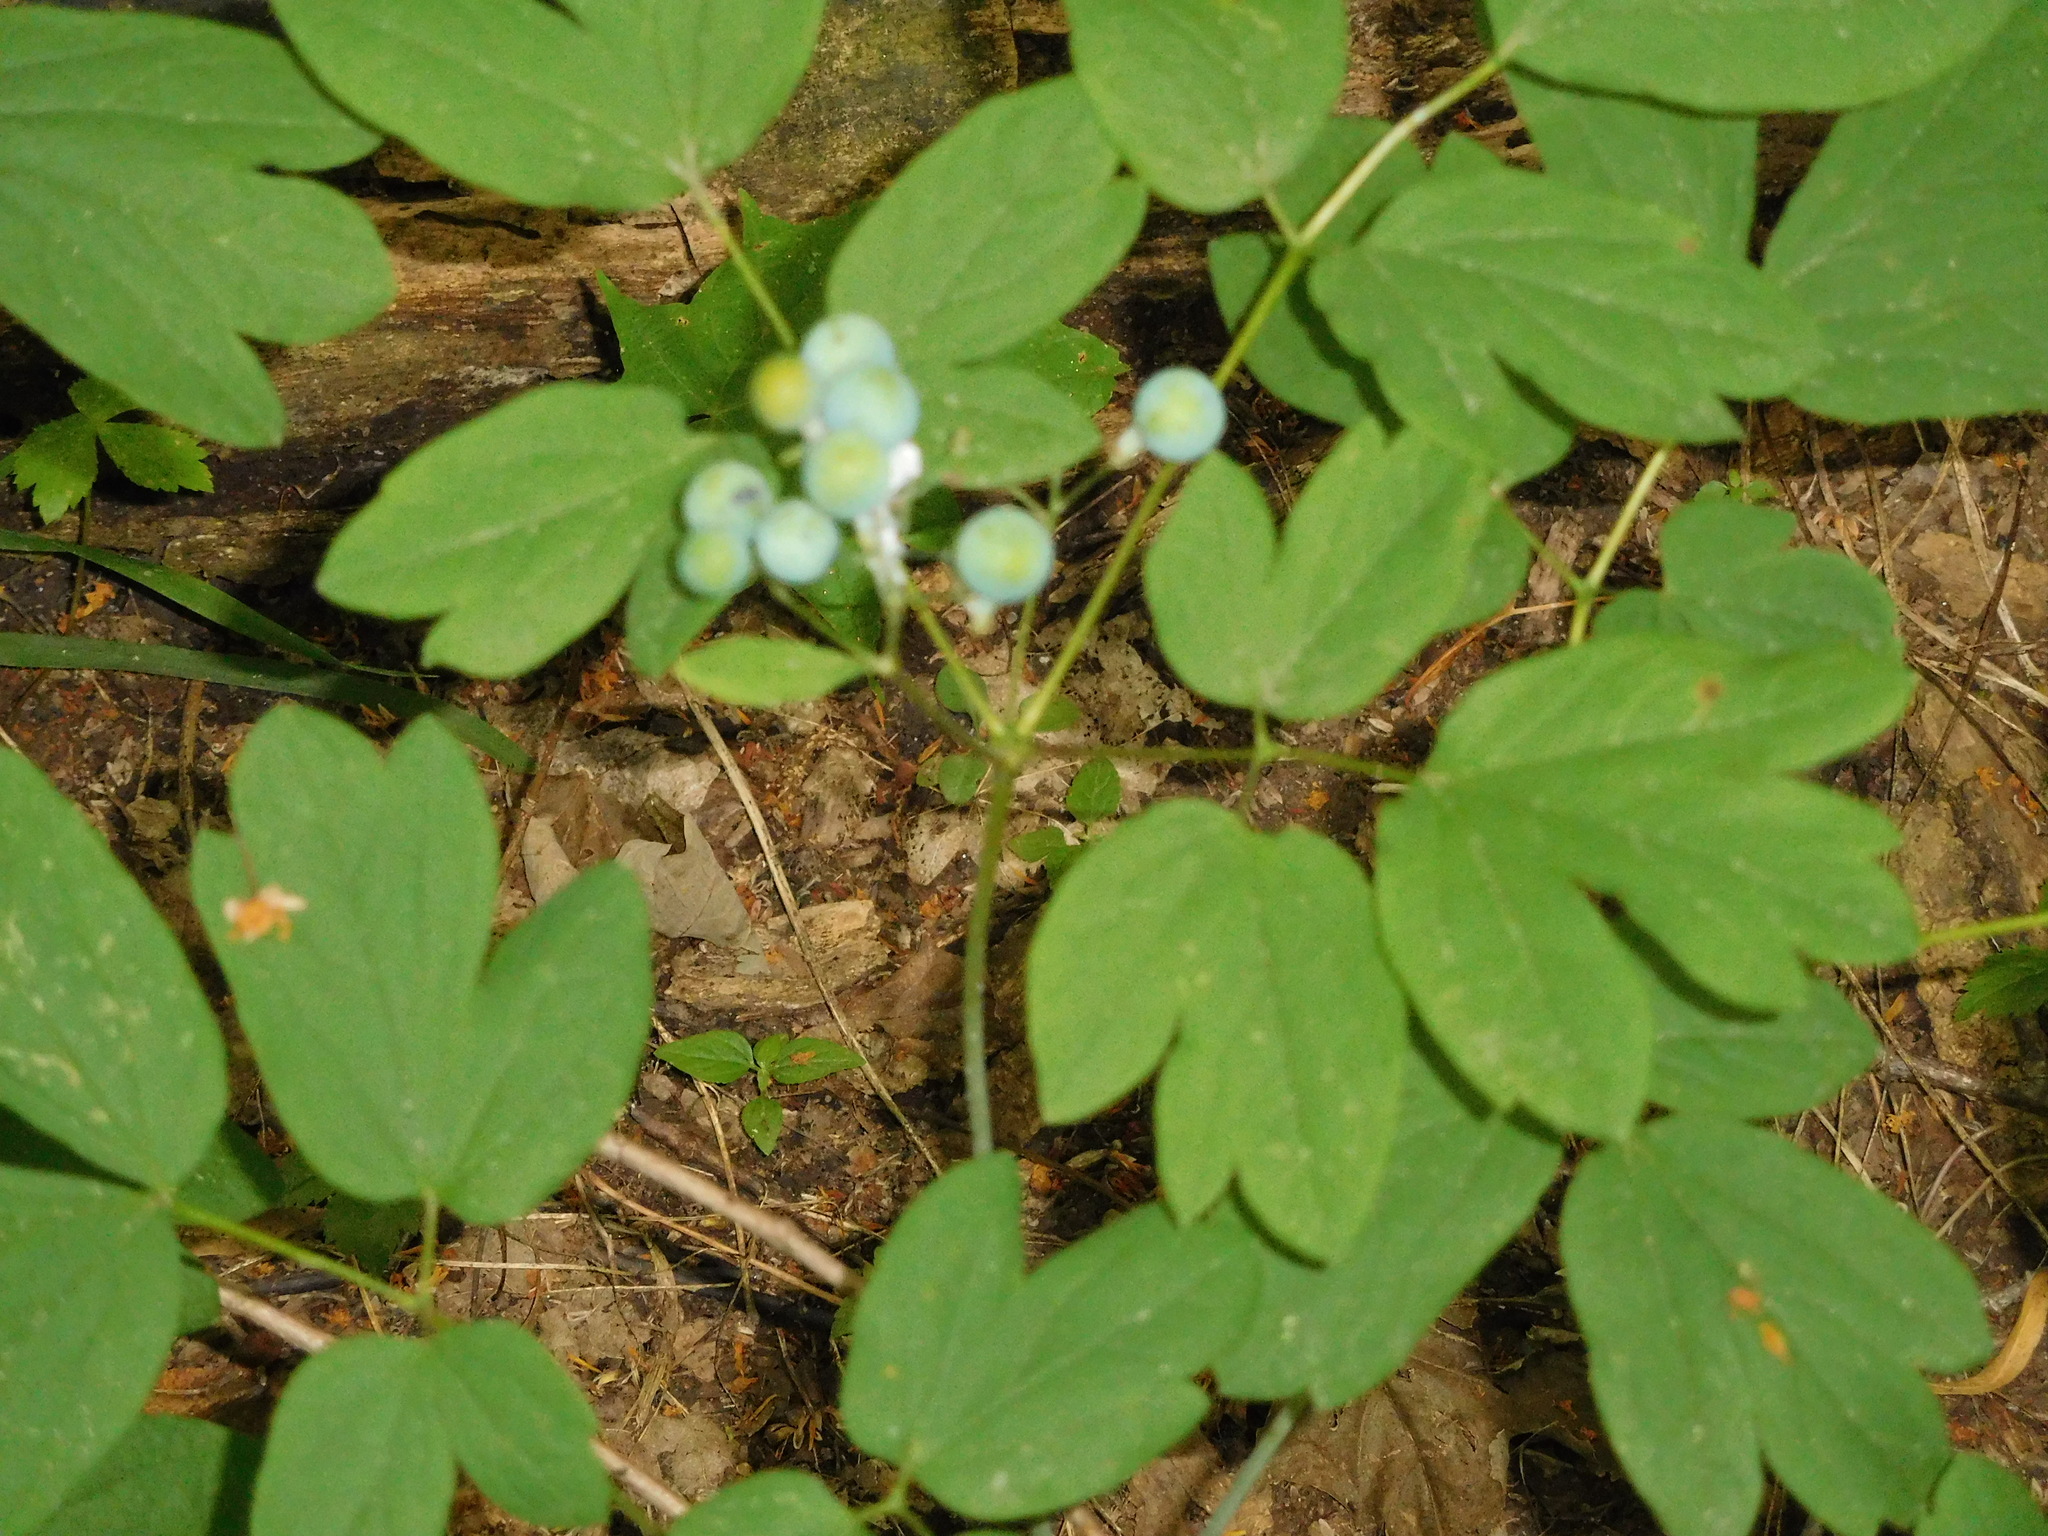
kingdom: Plantae
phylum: Tracheophyta
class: Magnoliopsida
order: Ranunculales
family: Berberidaceae
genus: Caulophyllum
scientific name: Caulophyllum thalictroides
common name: Blue cohosh
